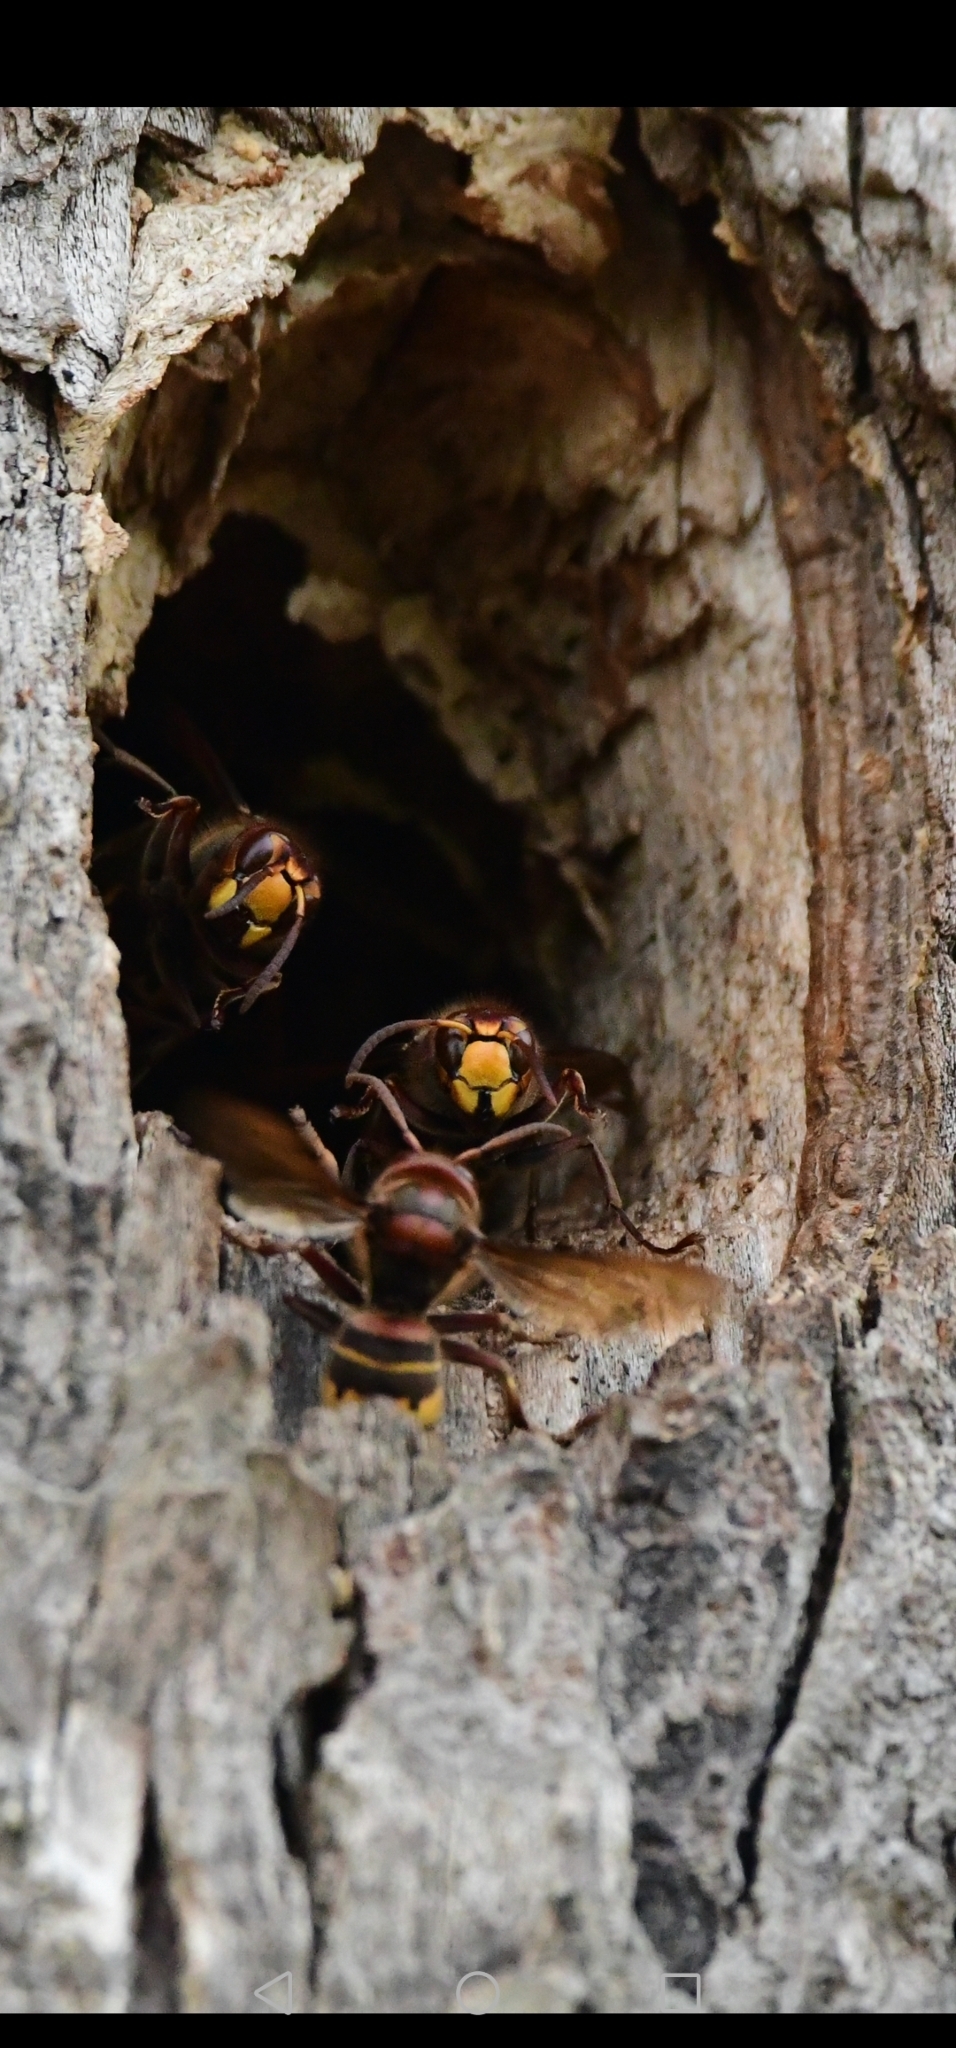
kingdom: Animalia
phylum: Arthropoda
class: Insecta
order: Hymenoptera
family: Vespidae
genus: Vespa
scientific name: Vespa crabro
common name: Hornet
